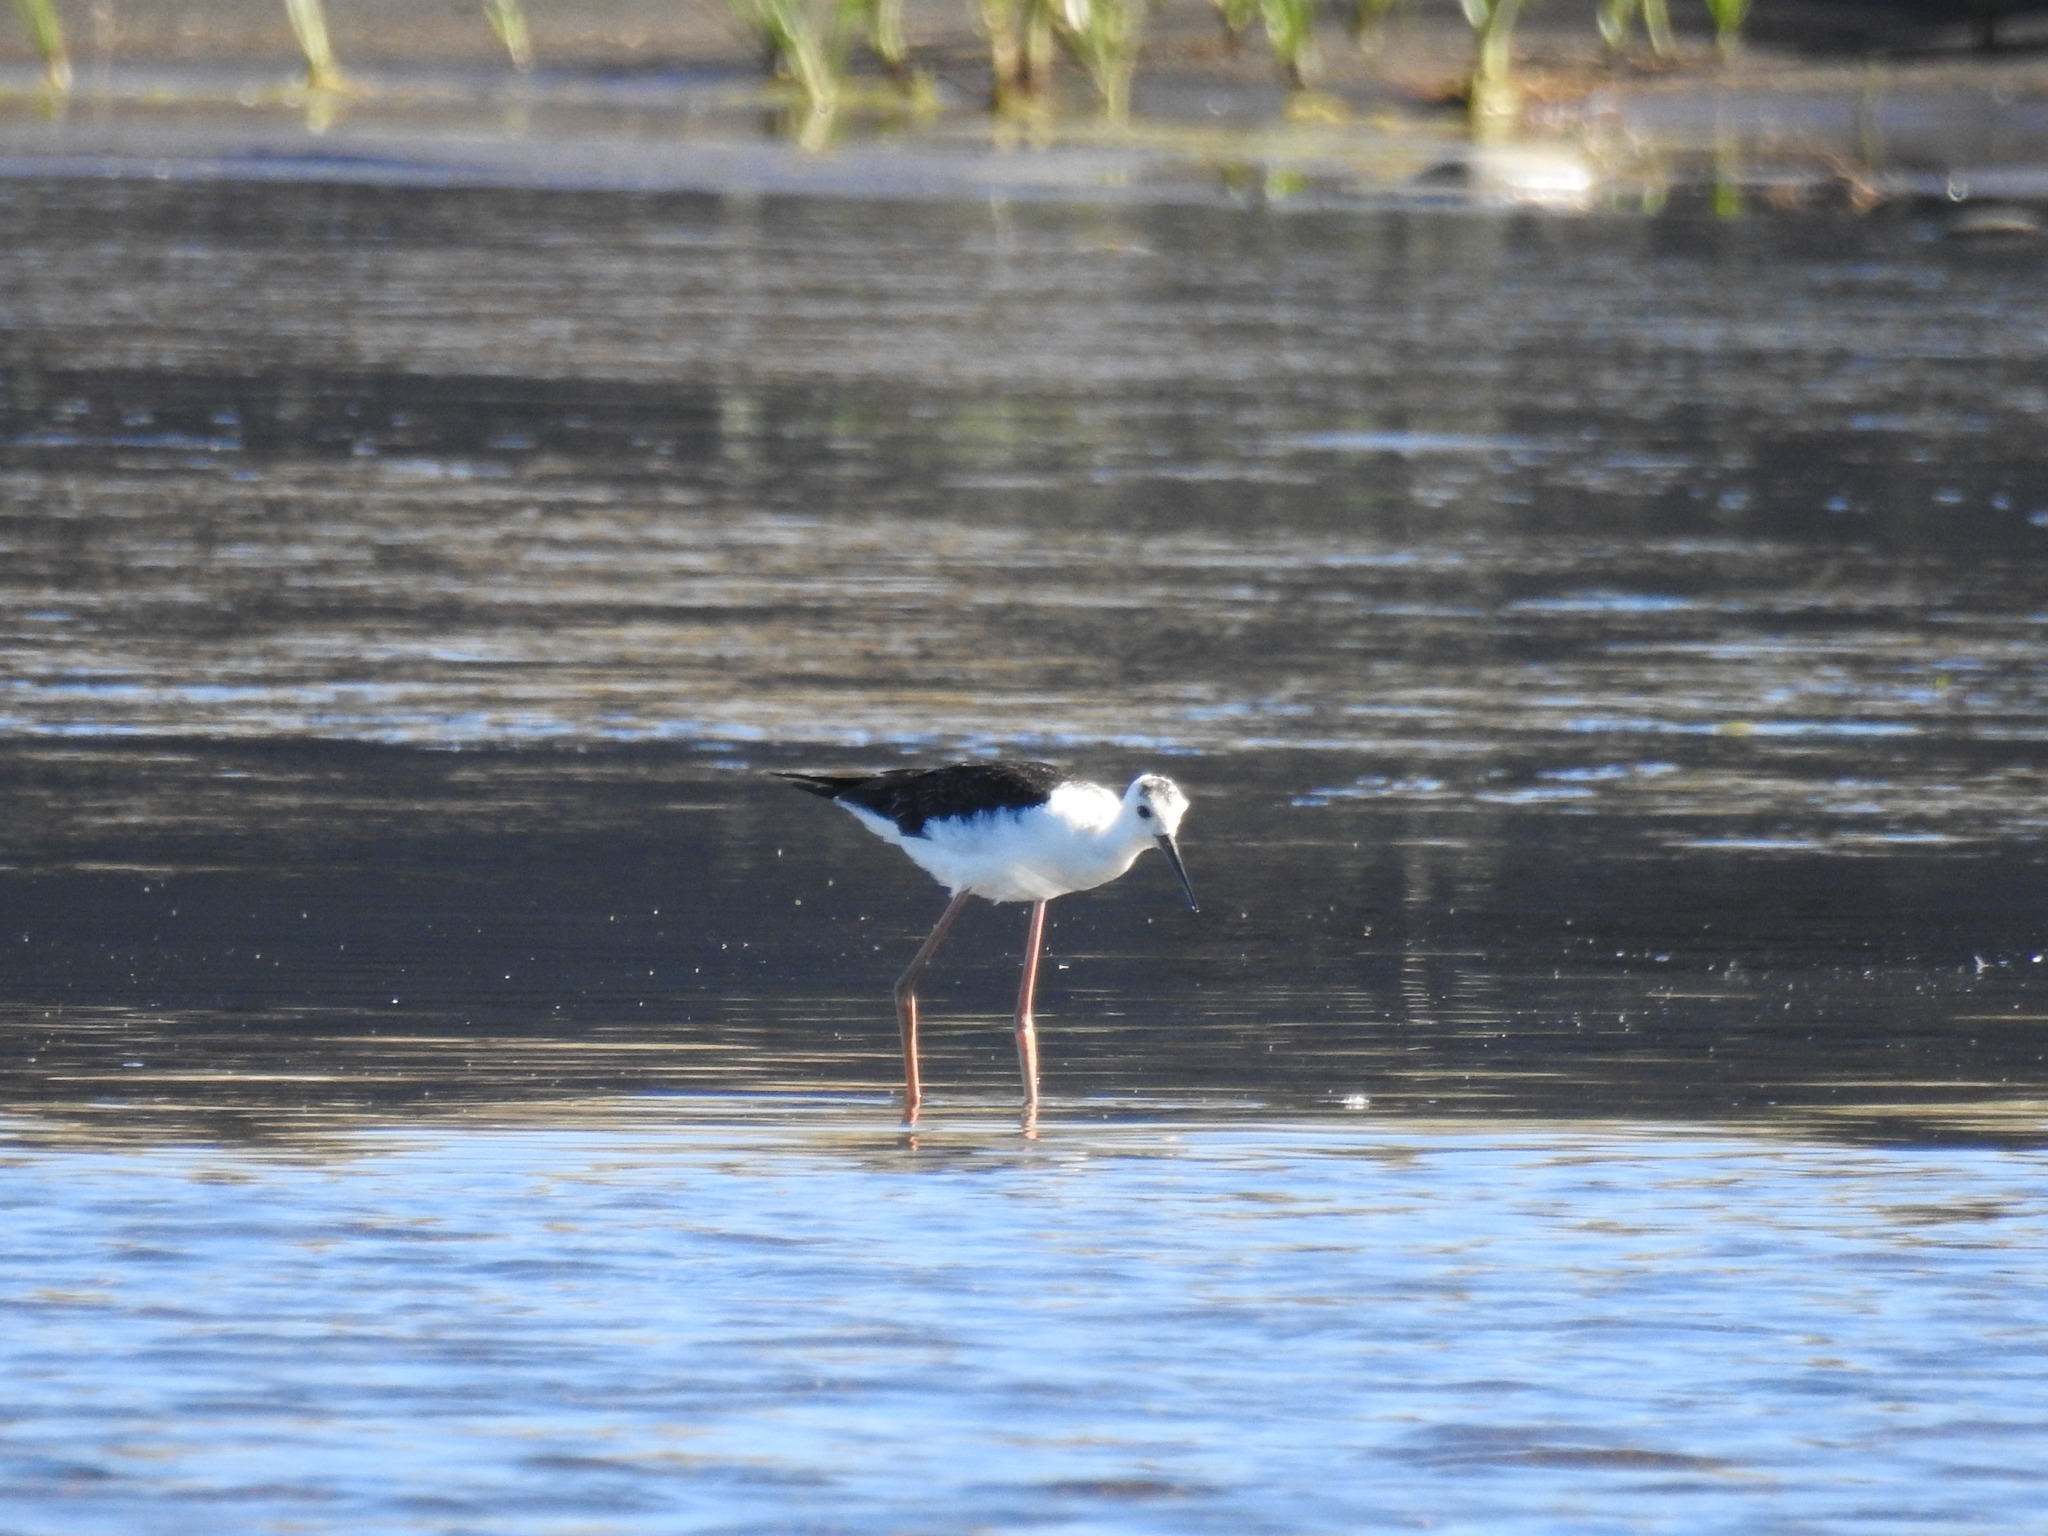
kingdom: Animalia
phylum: Chordata
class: Aves
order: Charadriiformes
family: Recurvirostridae
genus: Himantopus
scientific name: Himantopus leucocephalus
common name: White-headed stilt
